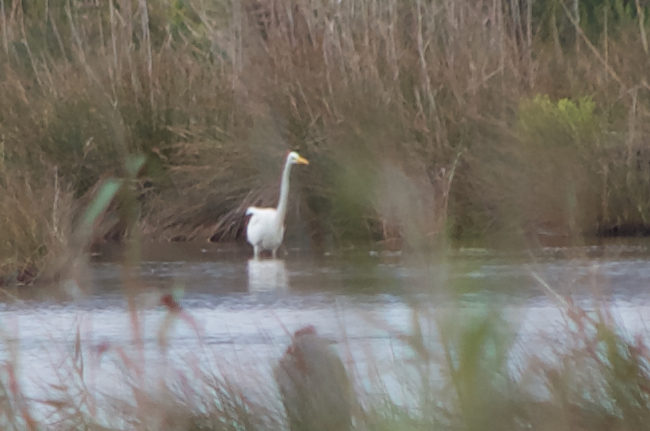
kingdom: Animalia
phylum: Chordata
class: Aves
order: Pelecaniformes
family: Ardeidae
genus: Ardea
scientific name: Ardea alba
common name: Great egret
